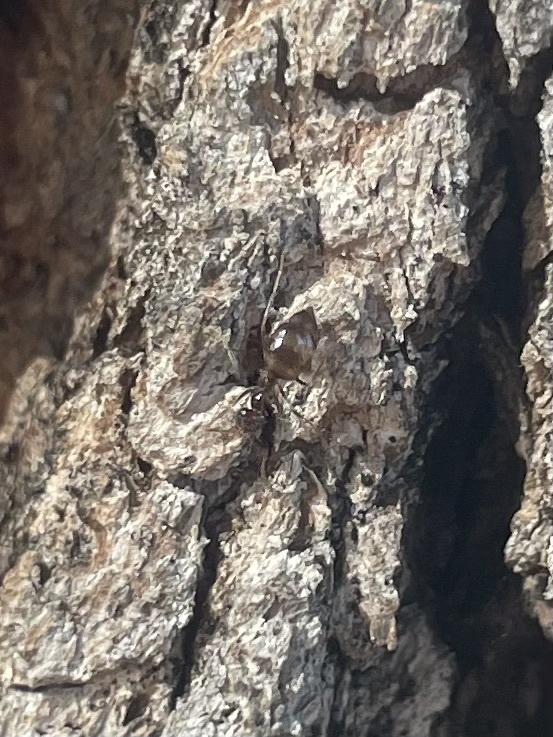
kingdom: Animalia
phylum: Arthropoda
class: Insecta
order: Hymenoptera
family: Formicidae
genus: Prenolepis
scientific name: Prenolepis imparis
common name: Small honey ant
